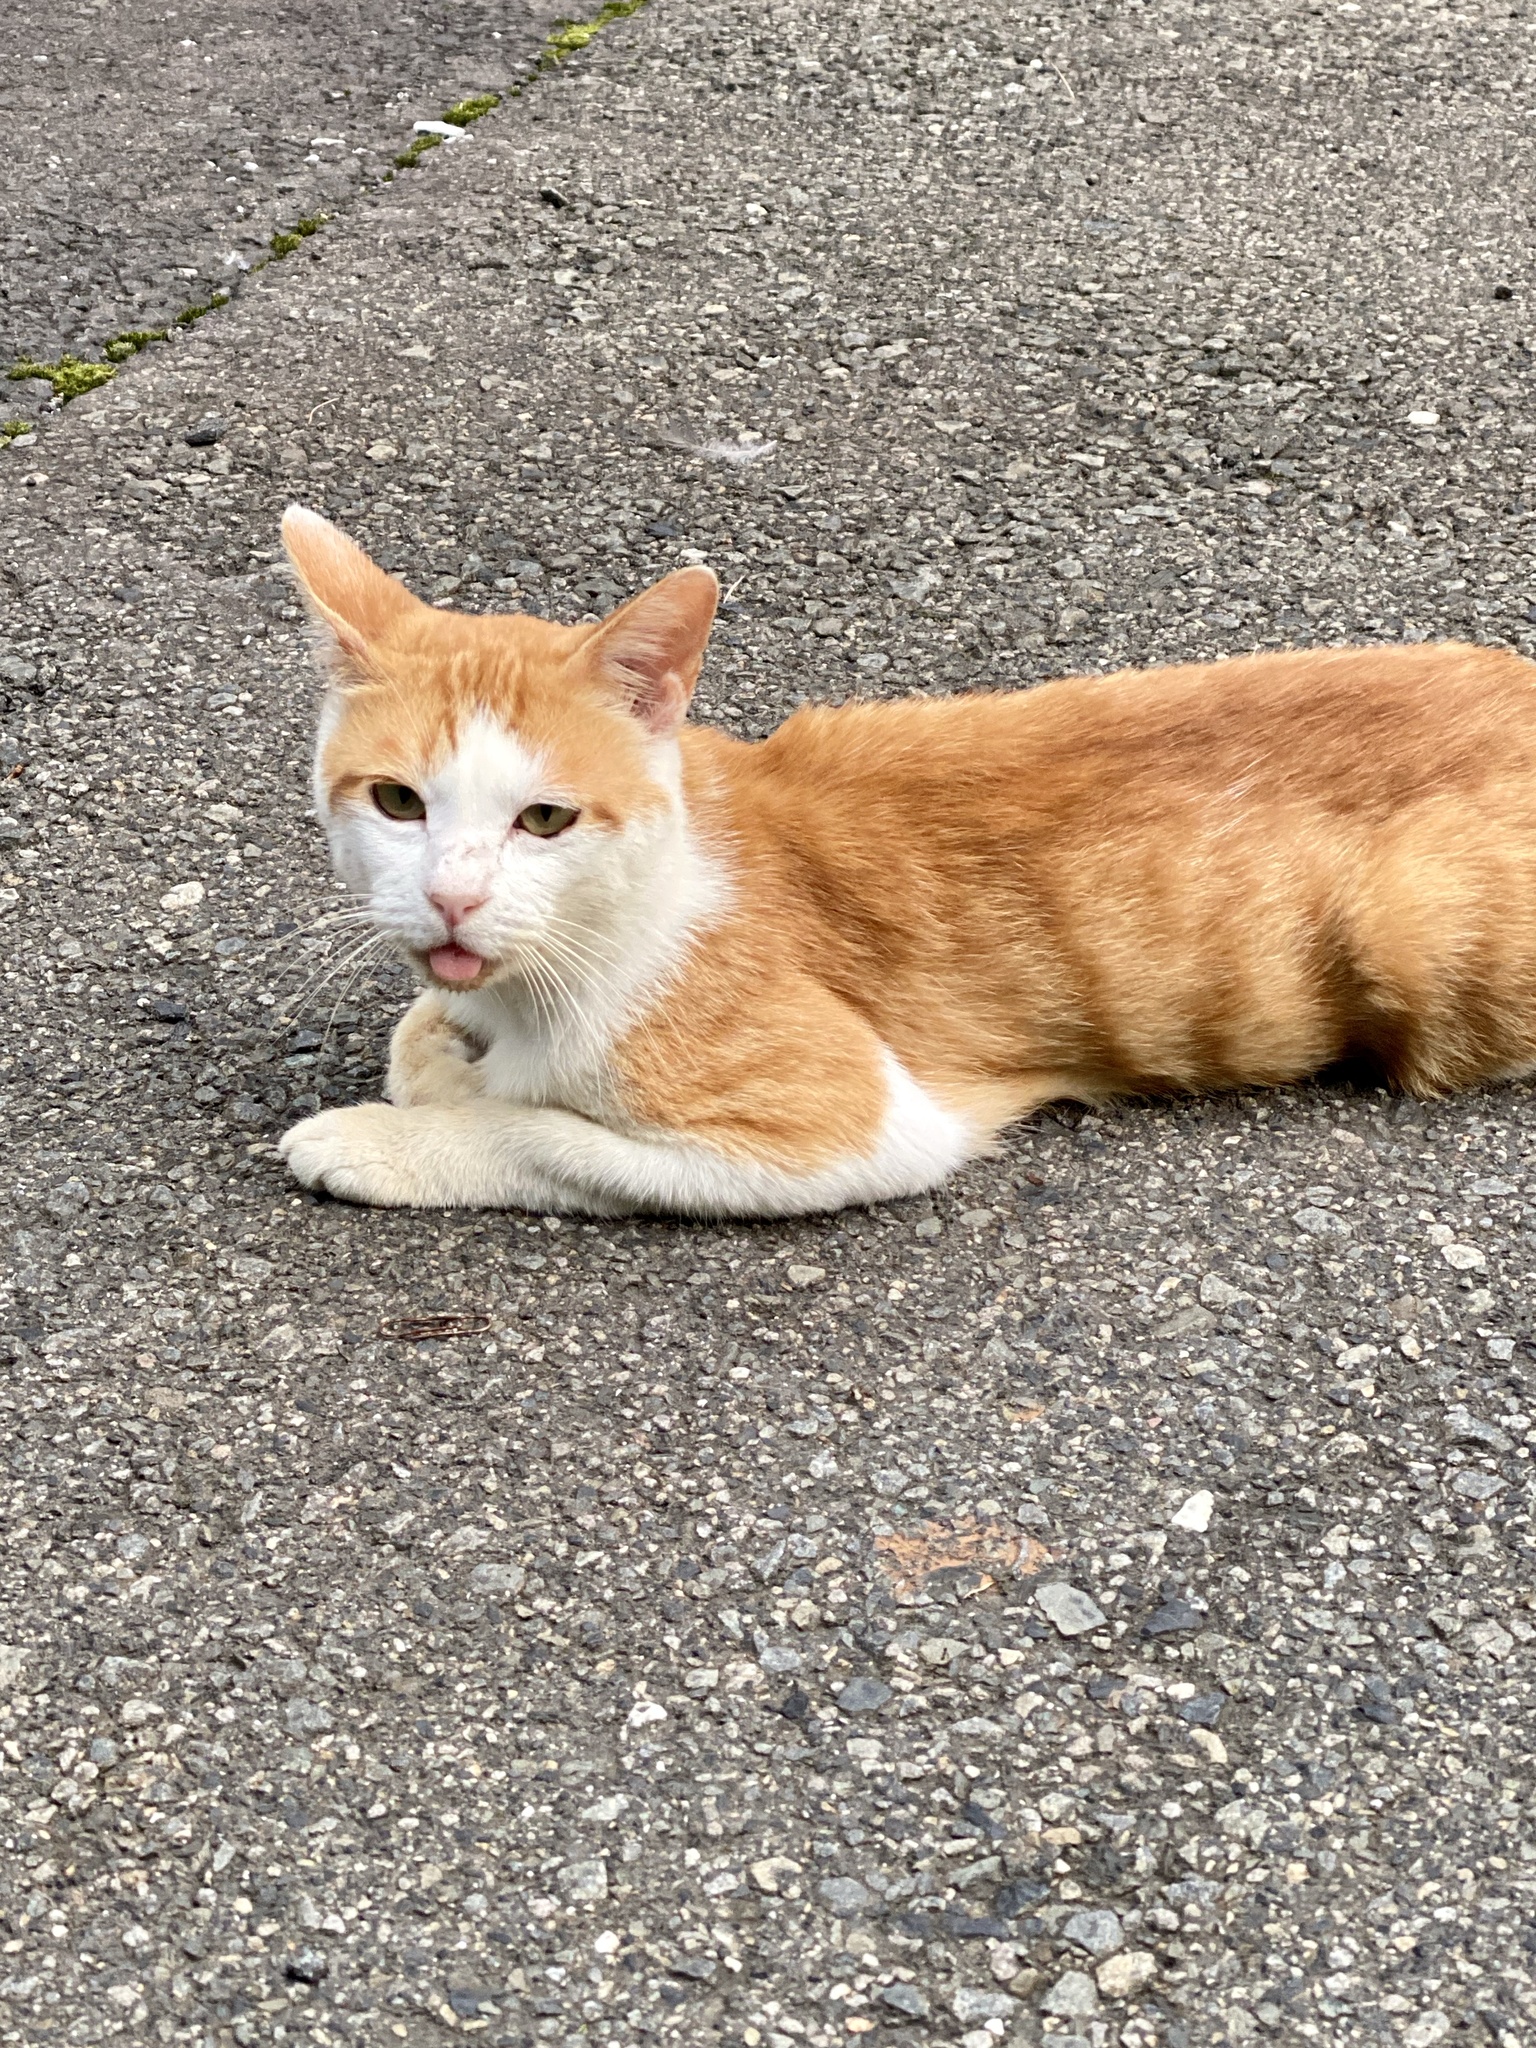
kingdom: Animalia
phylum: Chordata
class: Mammalia
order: Carnivora
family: Felidae
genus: Felis
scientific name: Felis catus
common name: Domestic cat
